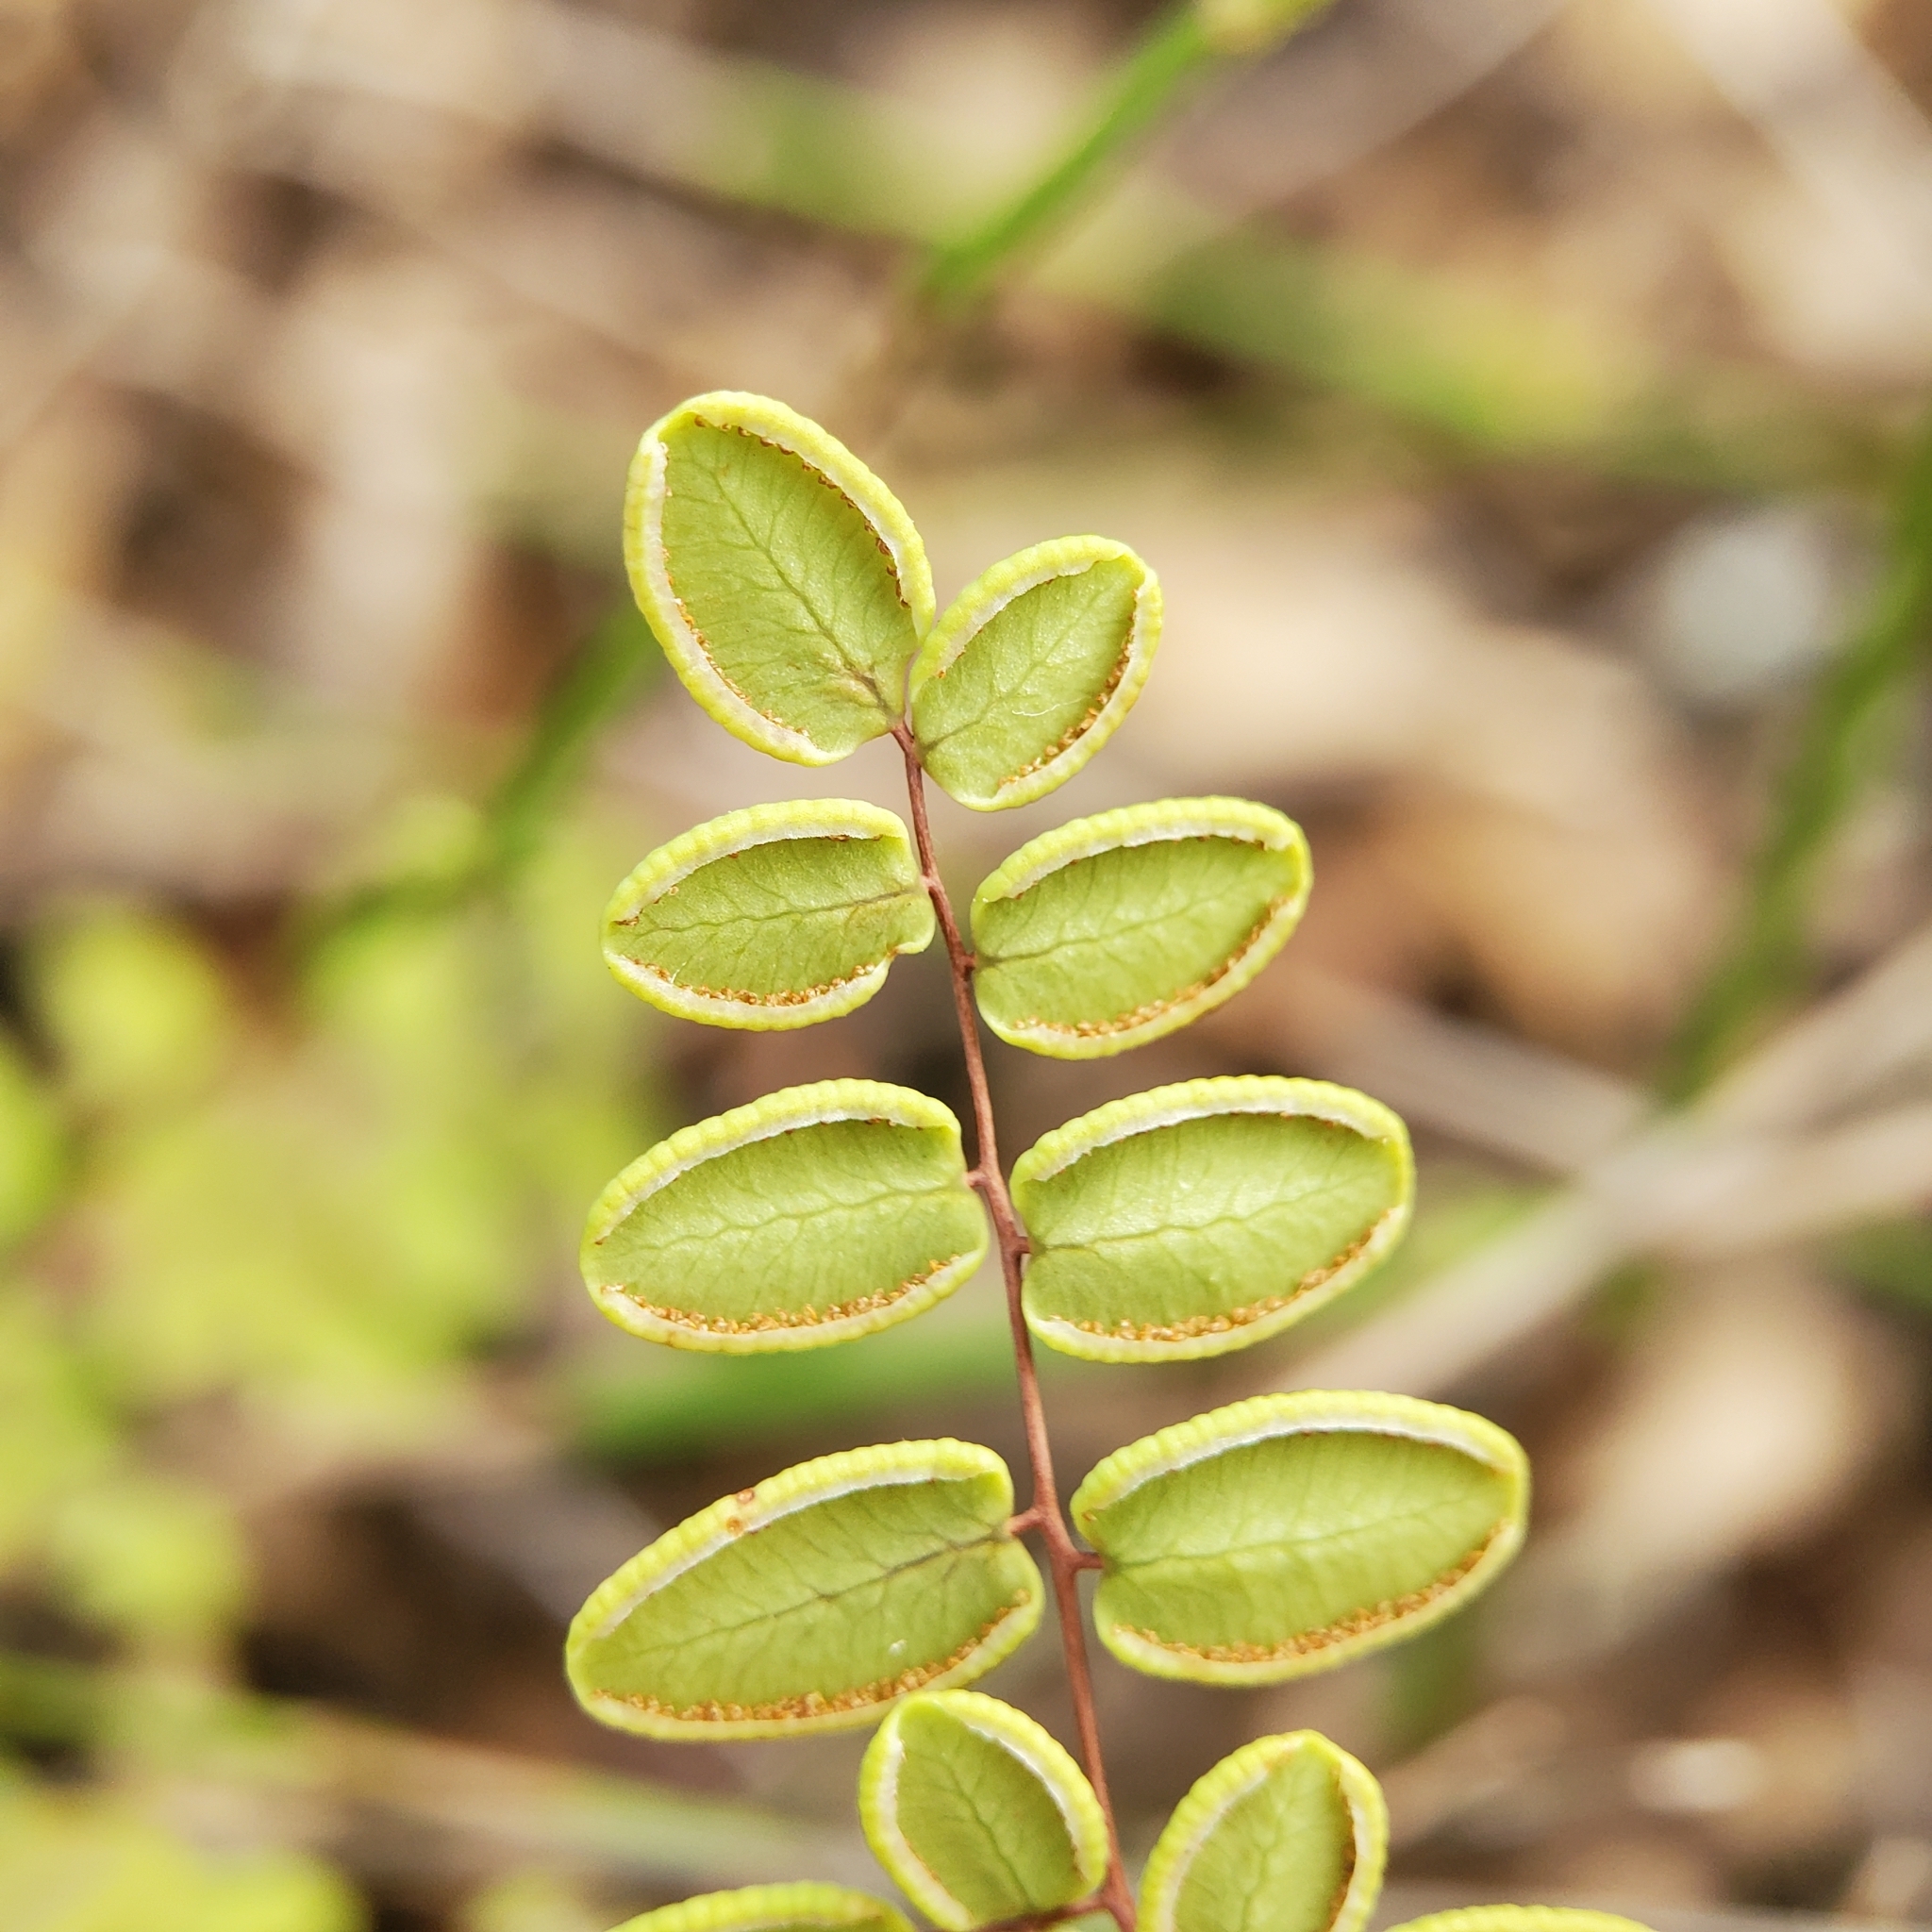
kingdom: Plantae
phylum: Tracheophyta
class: Polypodiopsida
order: Polypodiales
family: Pteridaceae
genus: Pellaea
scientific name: Pellaea andromedifolia
